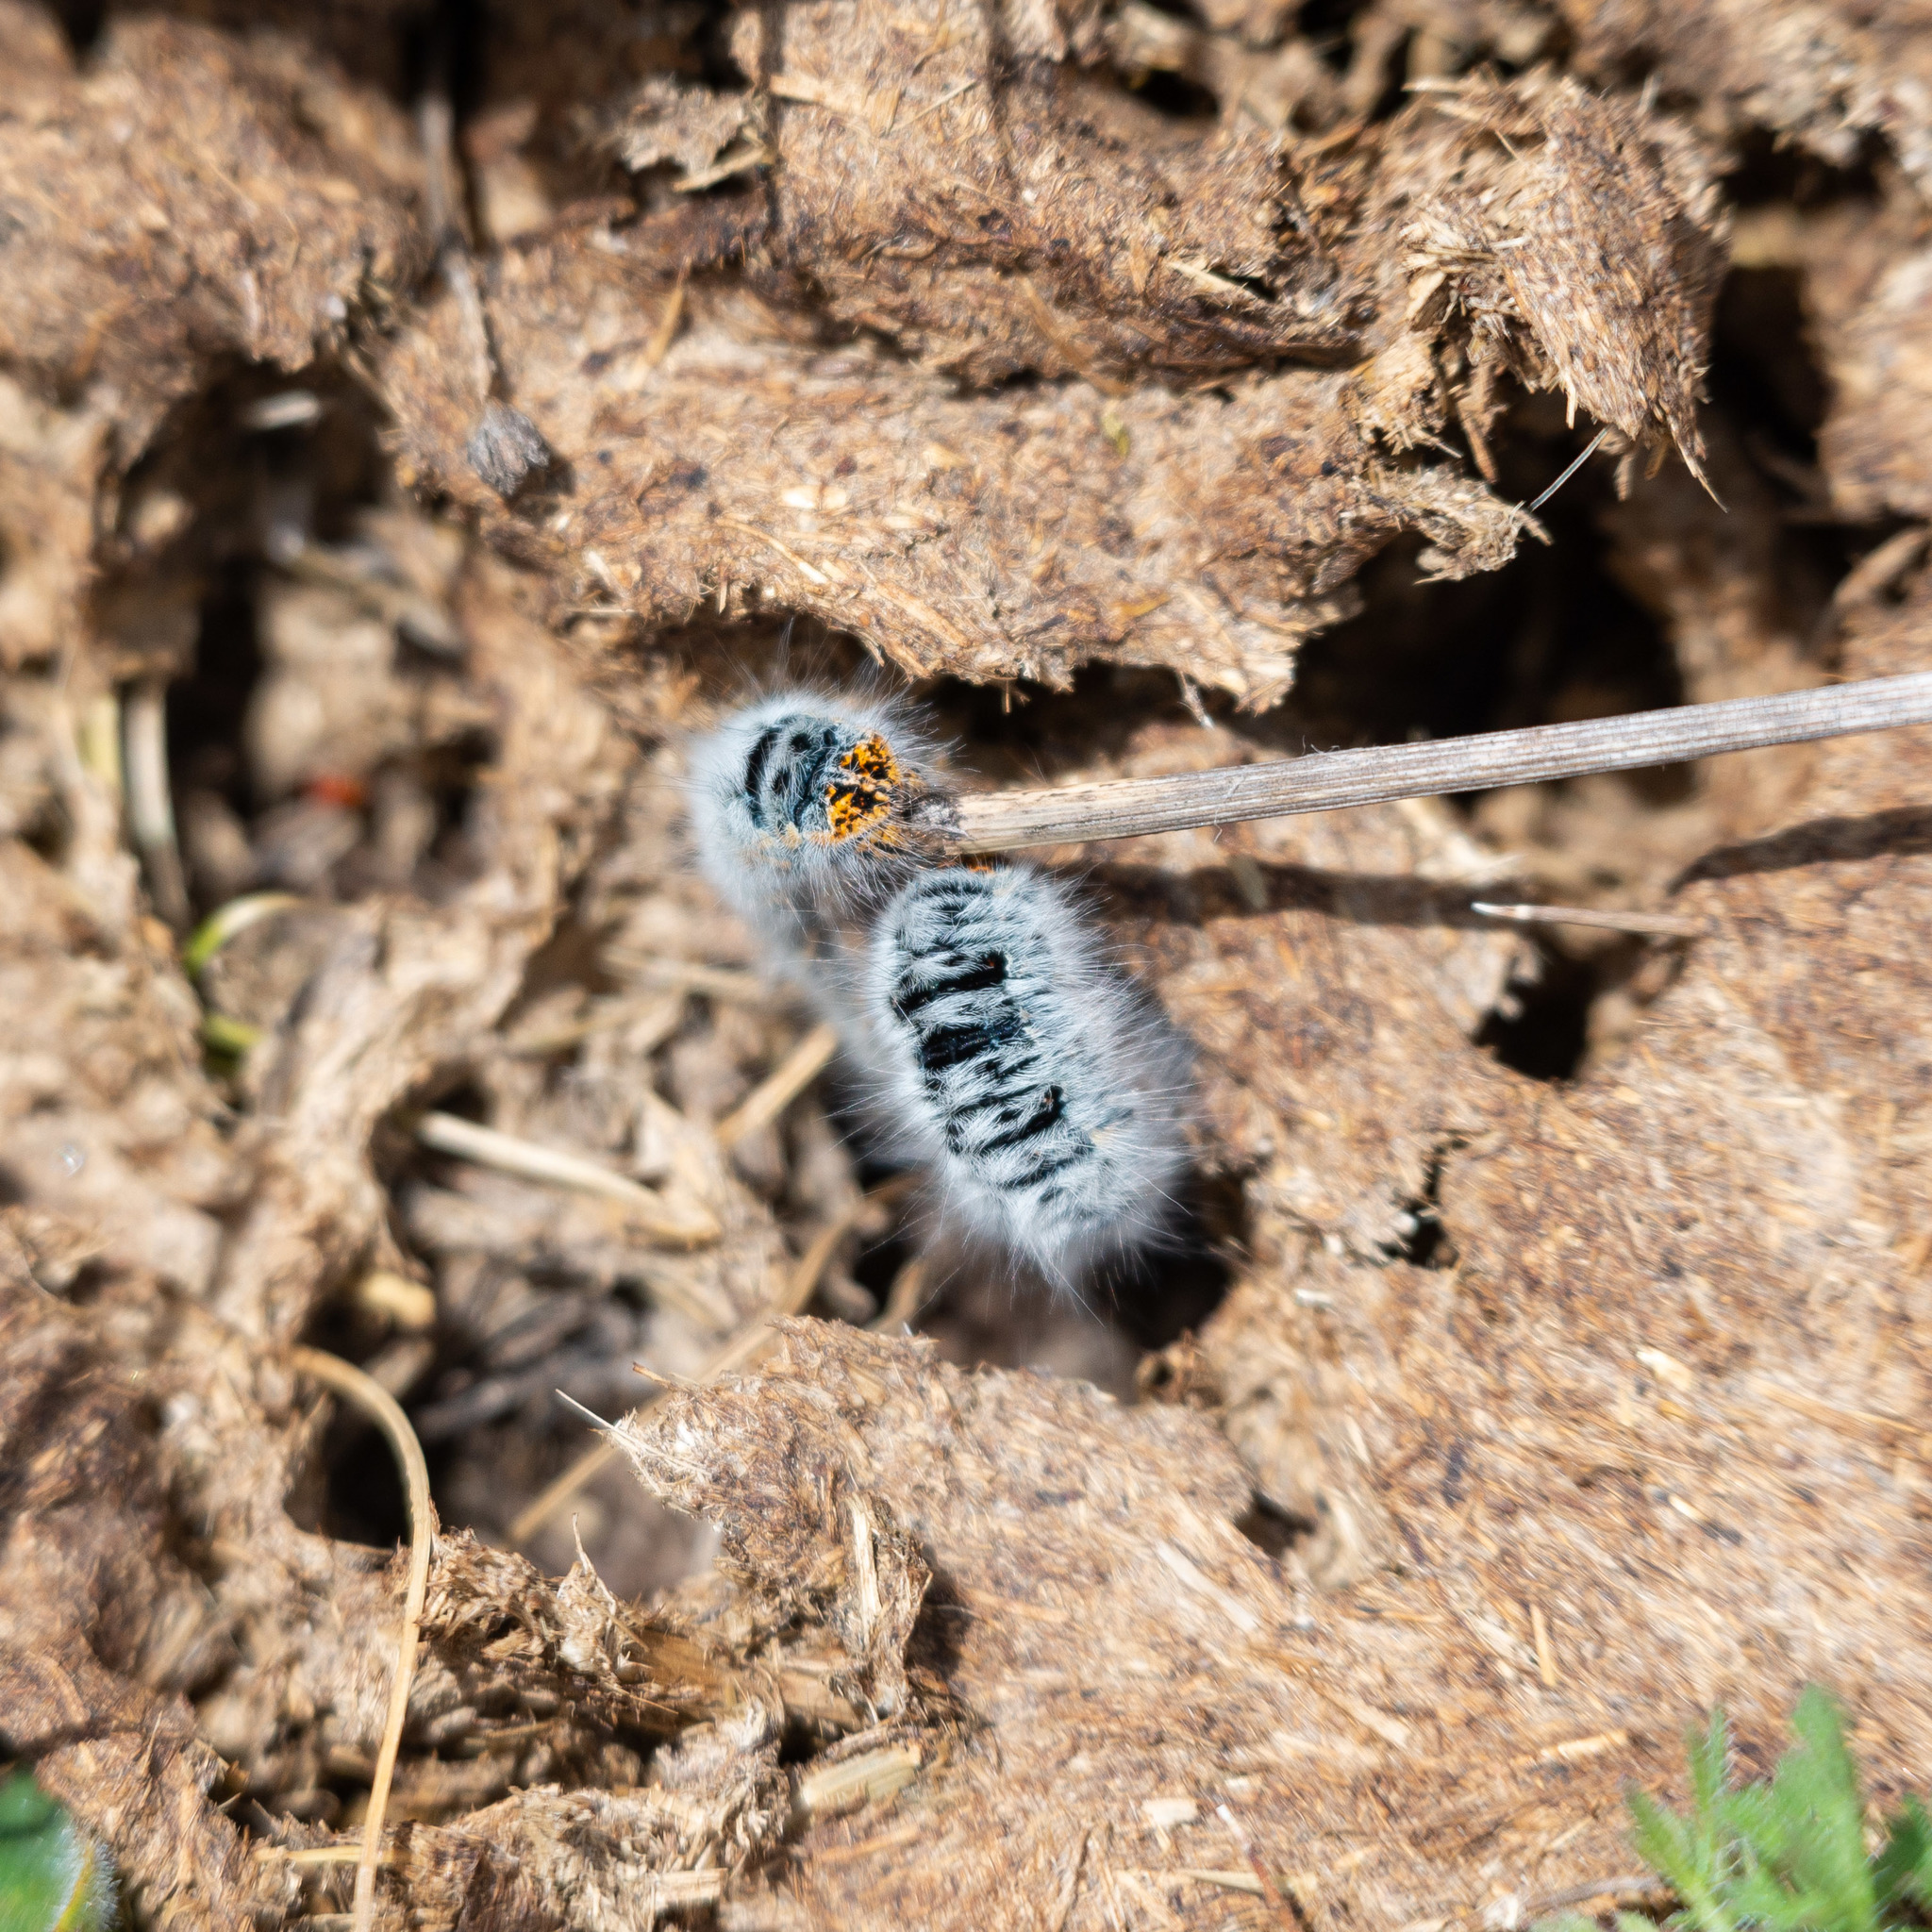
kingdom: Animalia
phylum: Arthropoda
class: Insecta
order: Lepidoptera
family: Lasiocampidae
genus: Lasiocampa
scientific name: Lasiocampa trifolii
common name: Grass eggar
